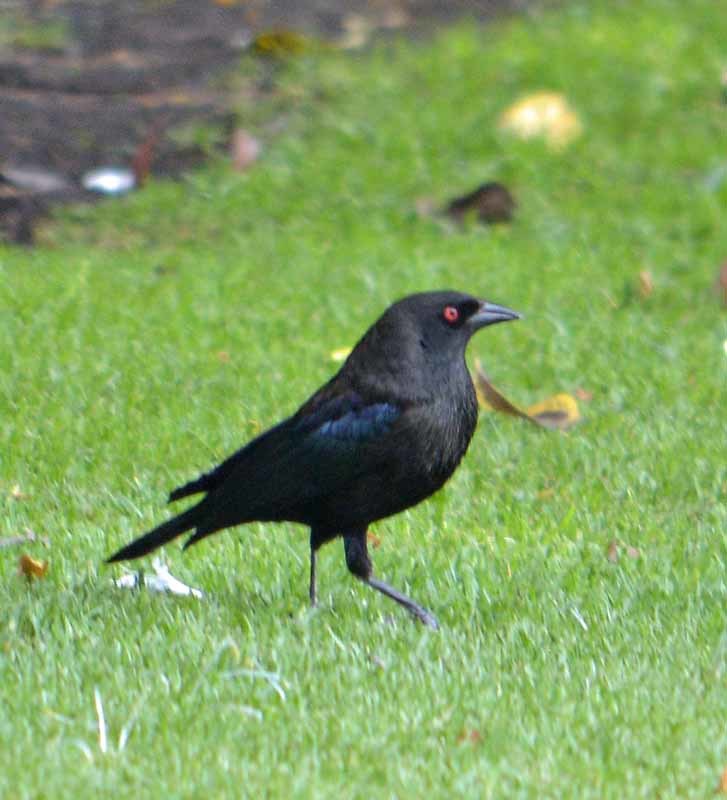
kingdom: Animalia
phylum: Chordata
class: Aves
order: Passeriformes
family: Icteridae
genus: Molothrus
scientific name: Molothrus aeneus
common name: Bronzed cowbird
